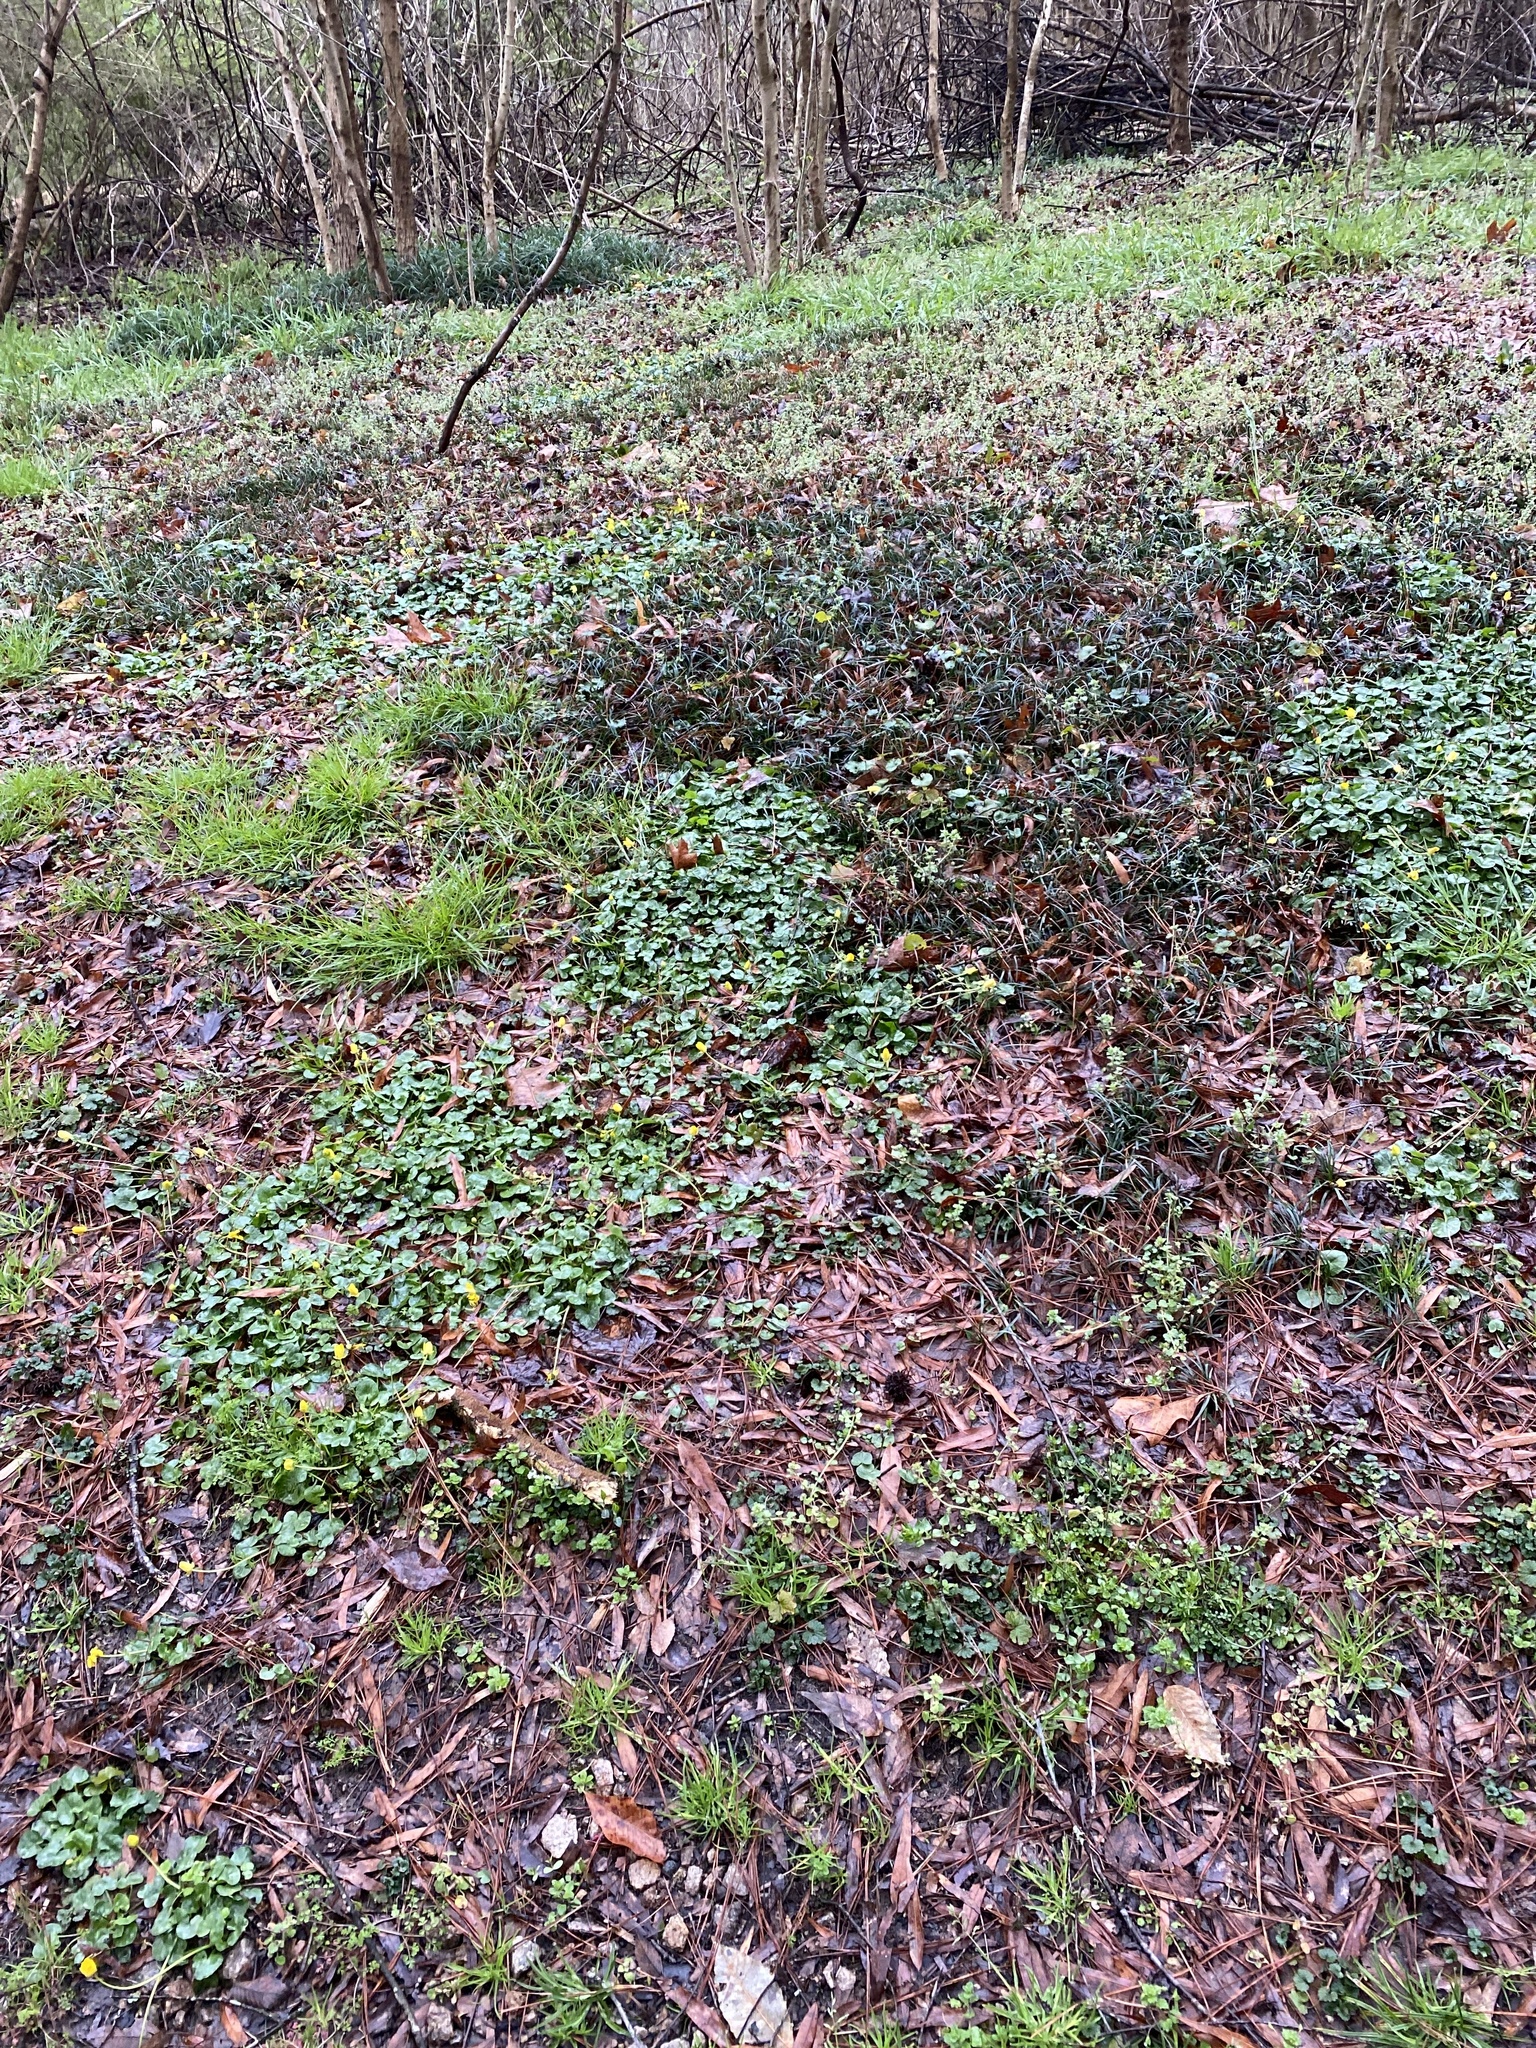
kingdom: Plantae
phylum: Tracheophyta
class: Magnoliopsida
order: Ranunculales
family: Ranunculaceae
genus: Ficaria
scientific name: Ficaria verna
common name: Lesser celandine
